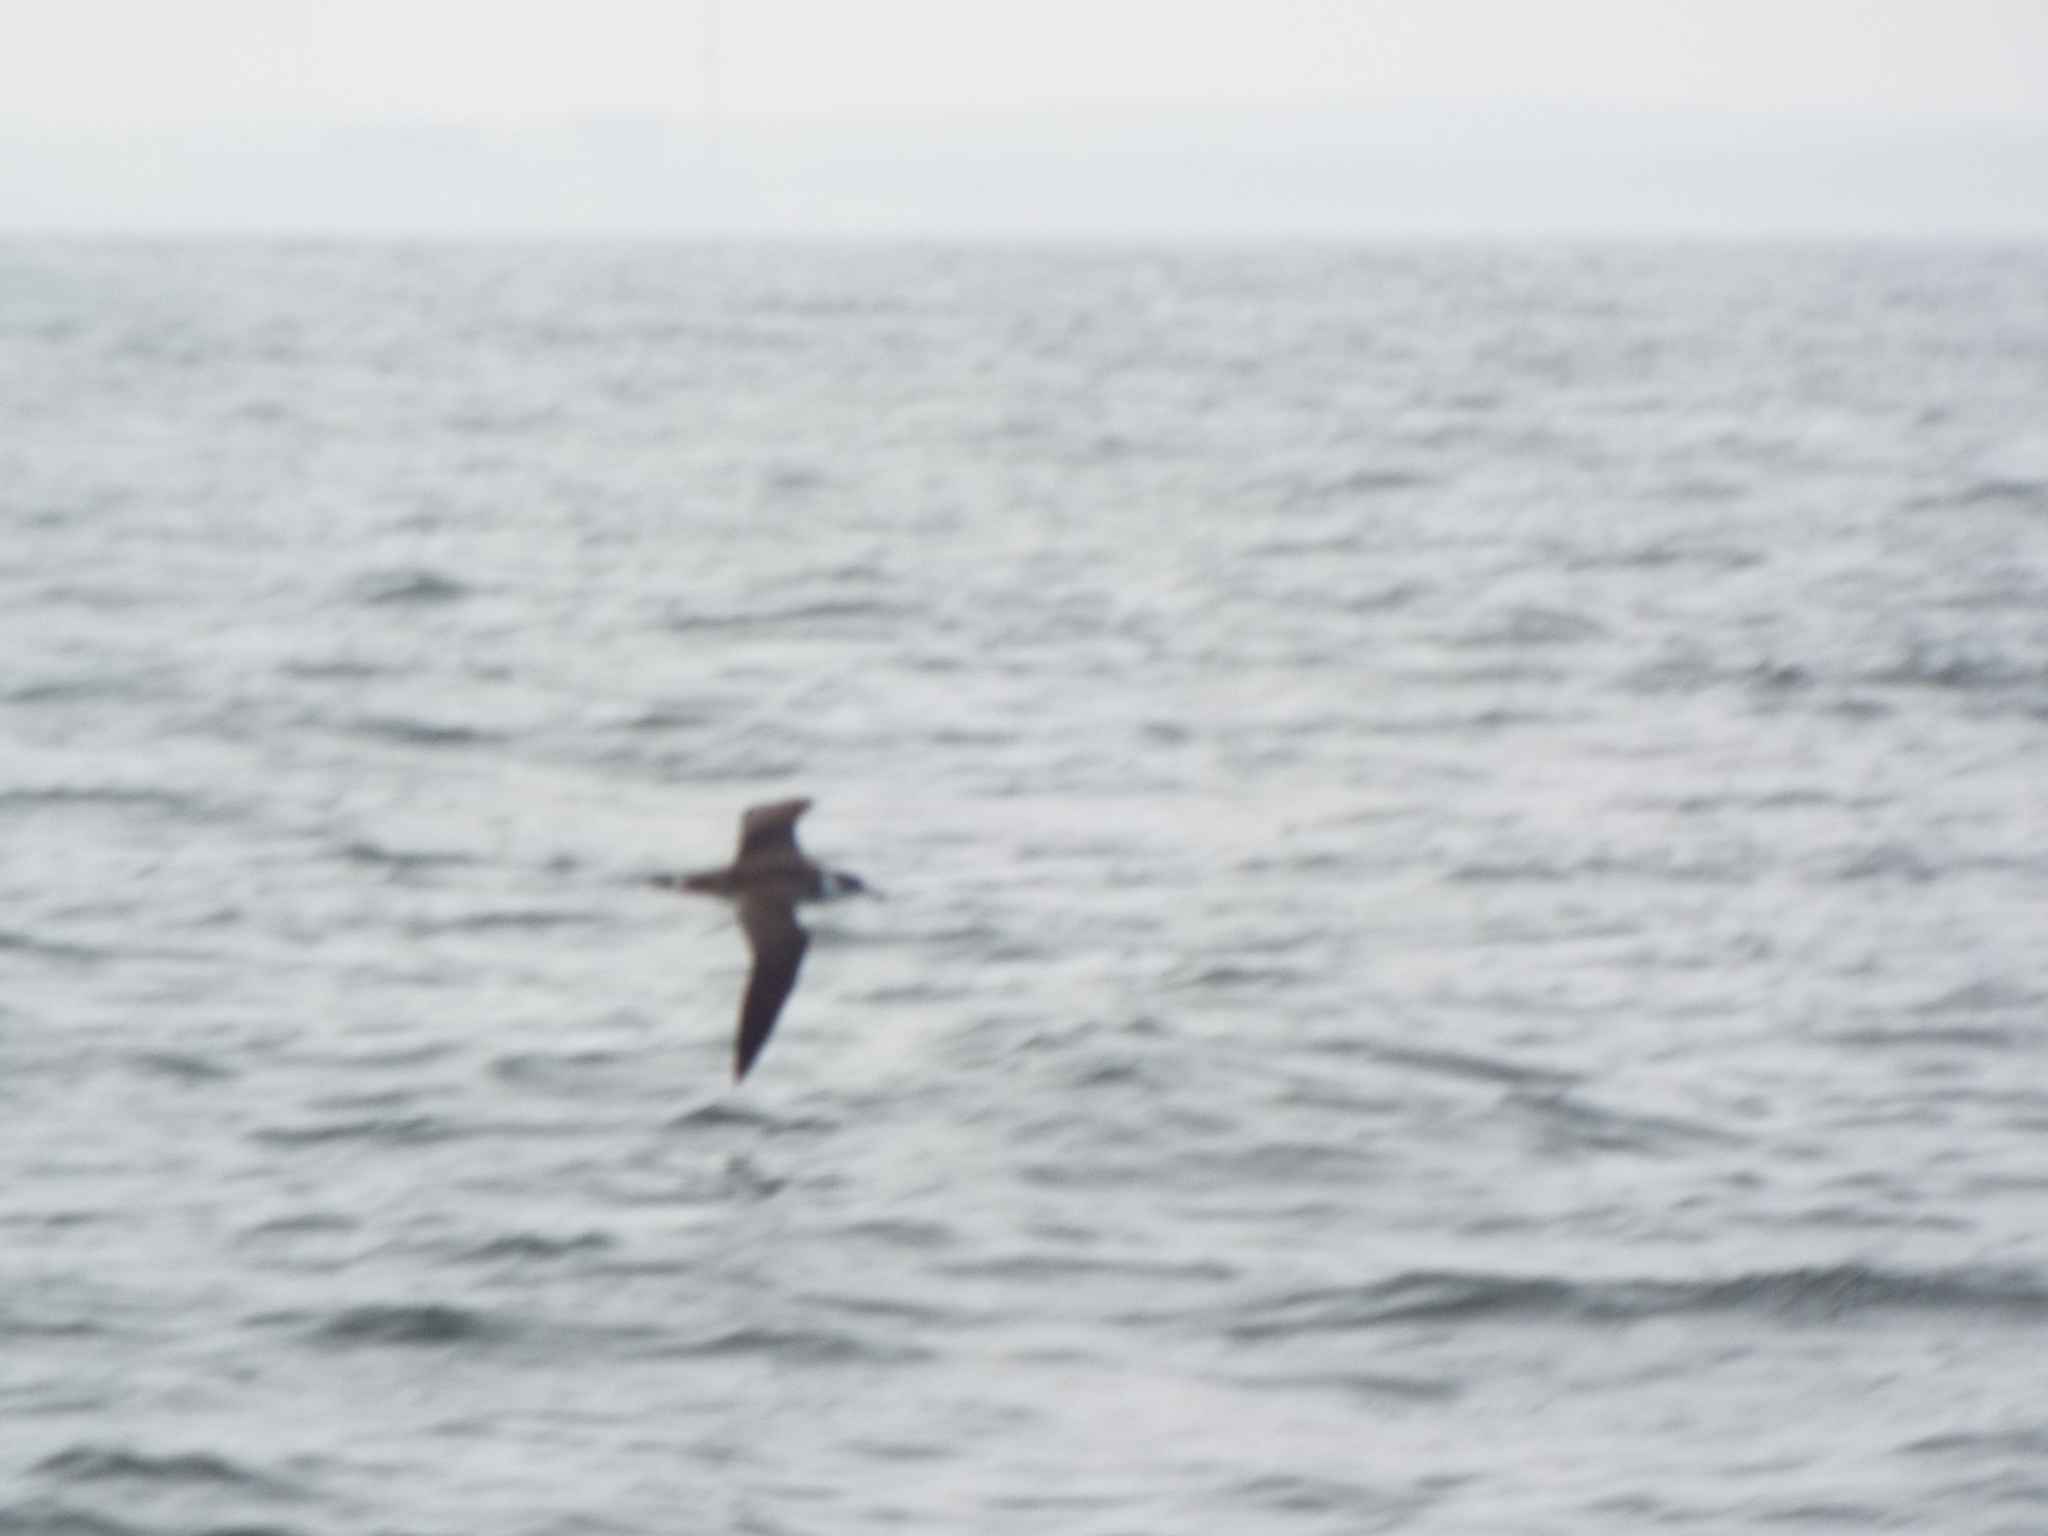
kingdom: Animalia
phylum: Chordata
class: Aves
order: Procellariiformes
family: Procellariidae
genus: Puffinus
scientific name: Puffinus gravis
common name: Great shearwater
